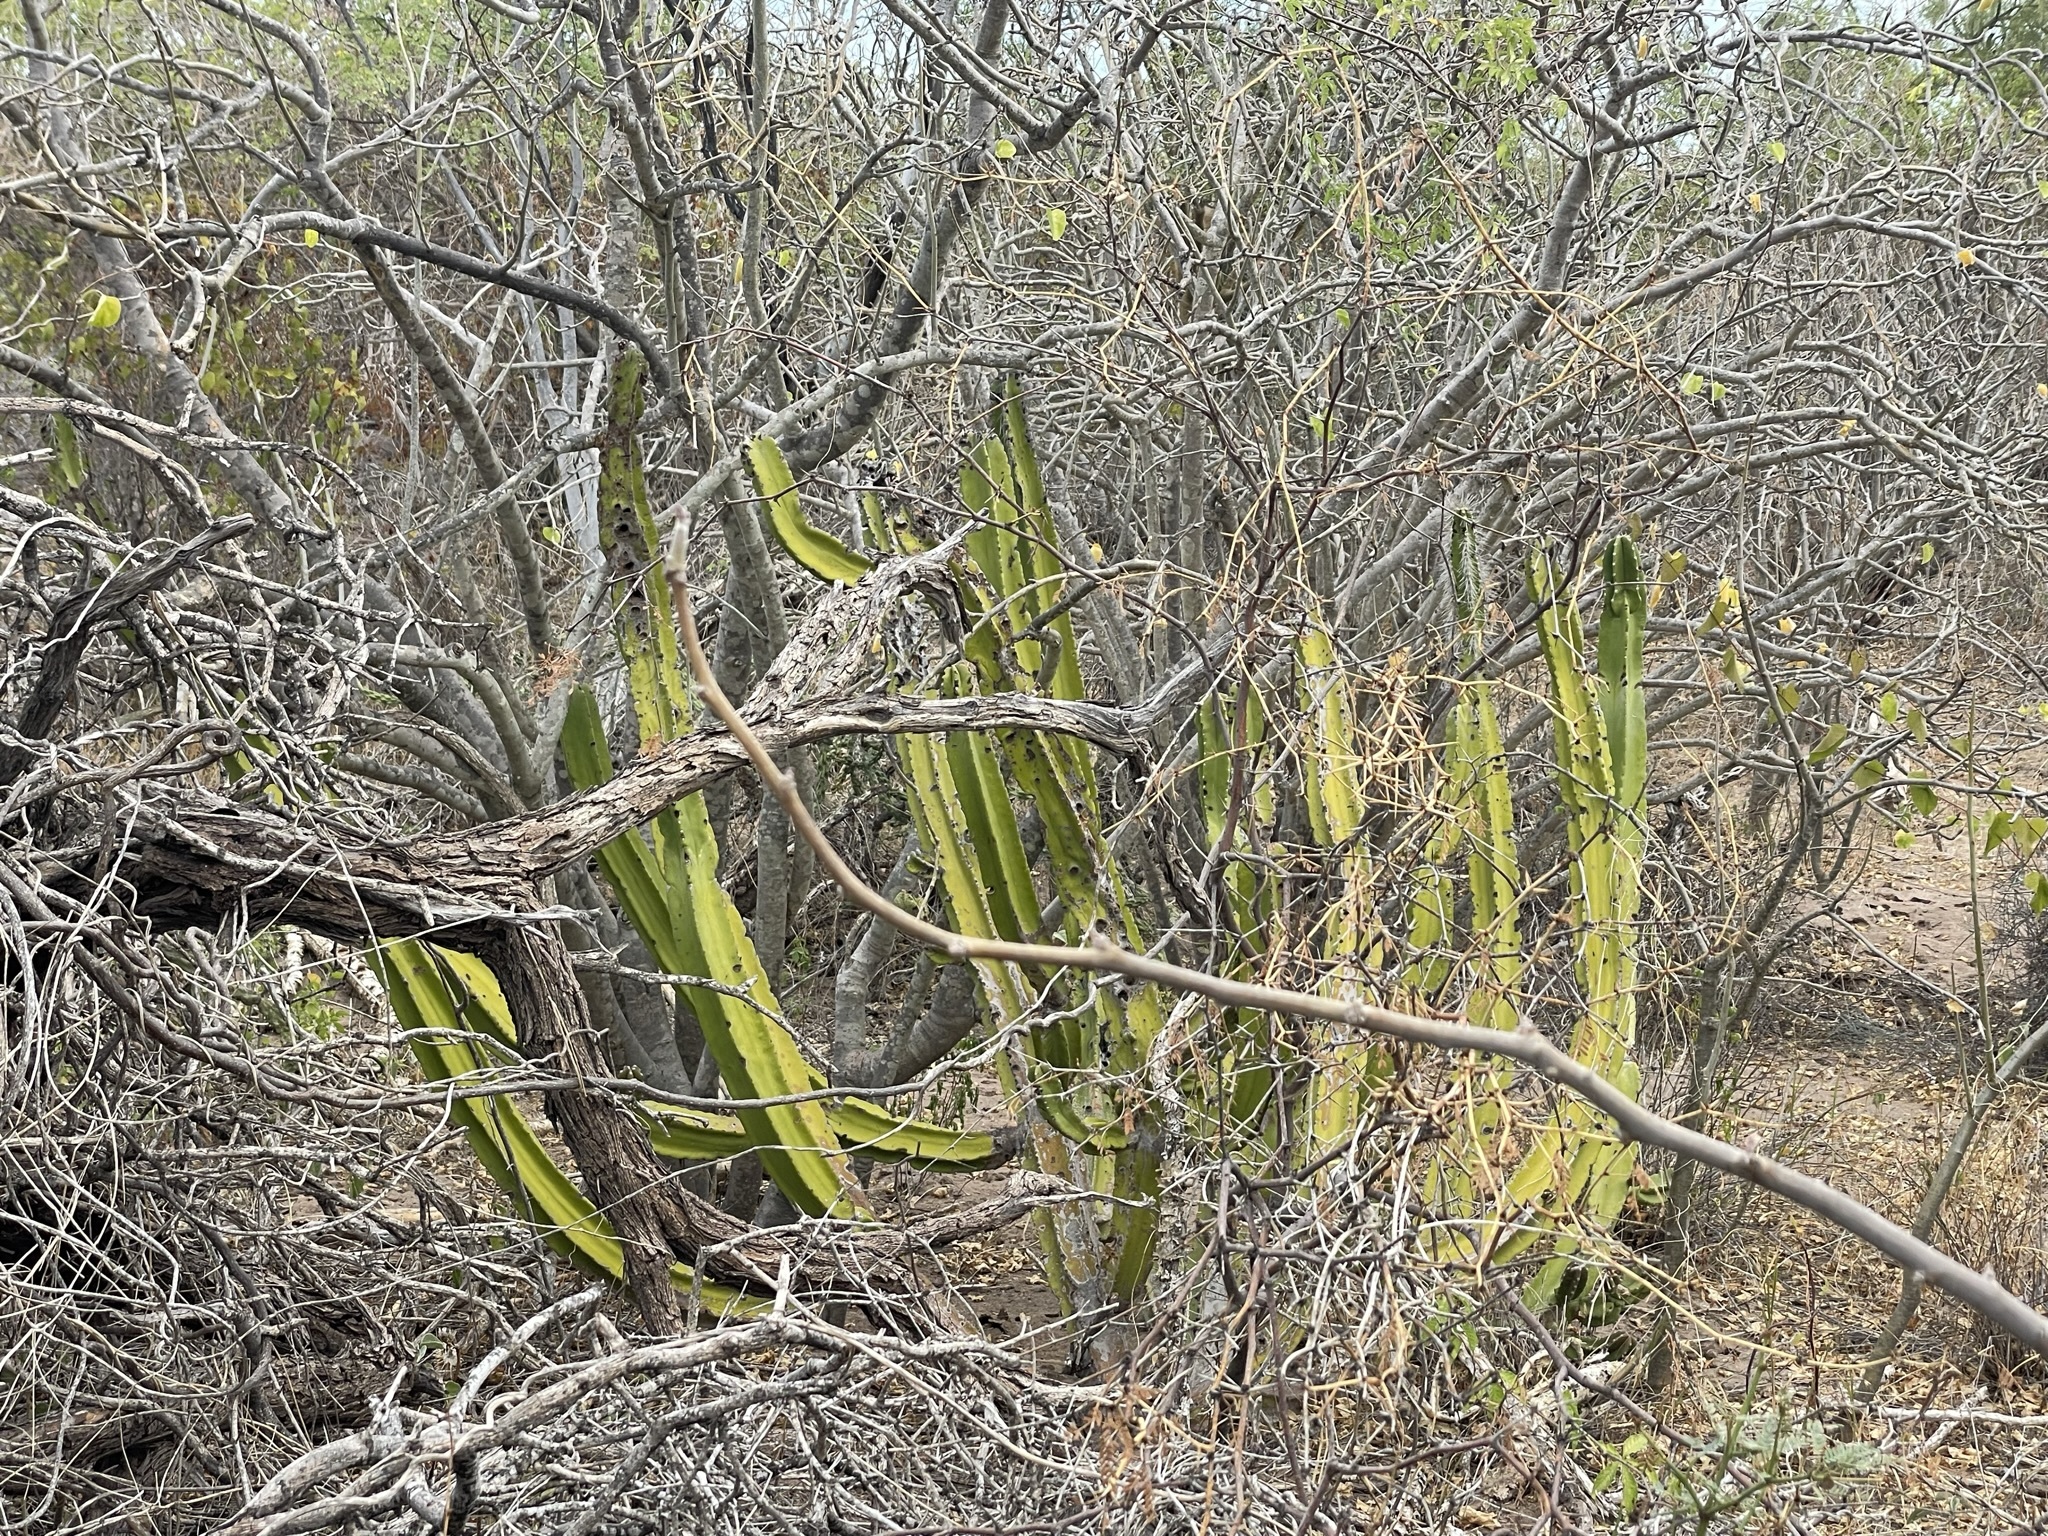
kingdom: Plantae
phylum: Tracheophyta
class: Magnoliopsida
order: Caryophyllales
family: Cactaceae
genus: Pachycereus
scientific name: Pachycereus schottii
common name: Senita cactus
